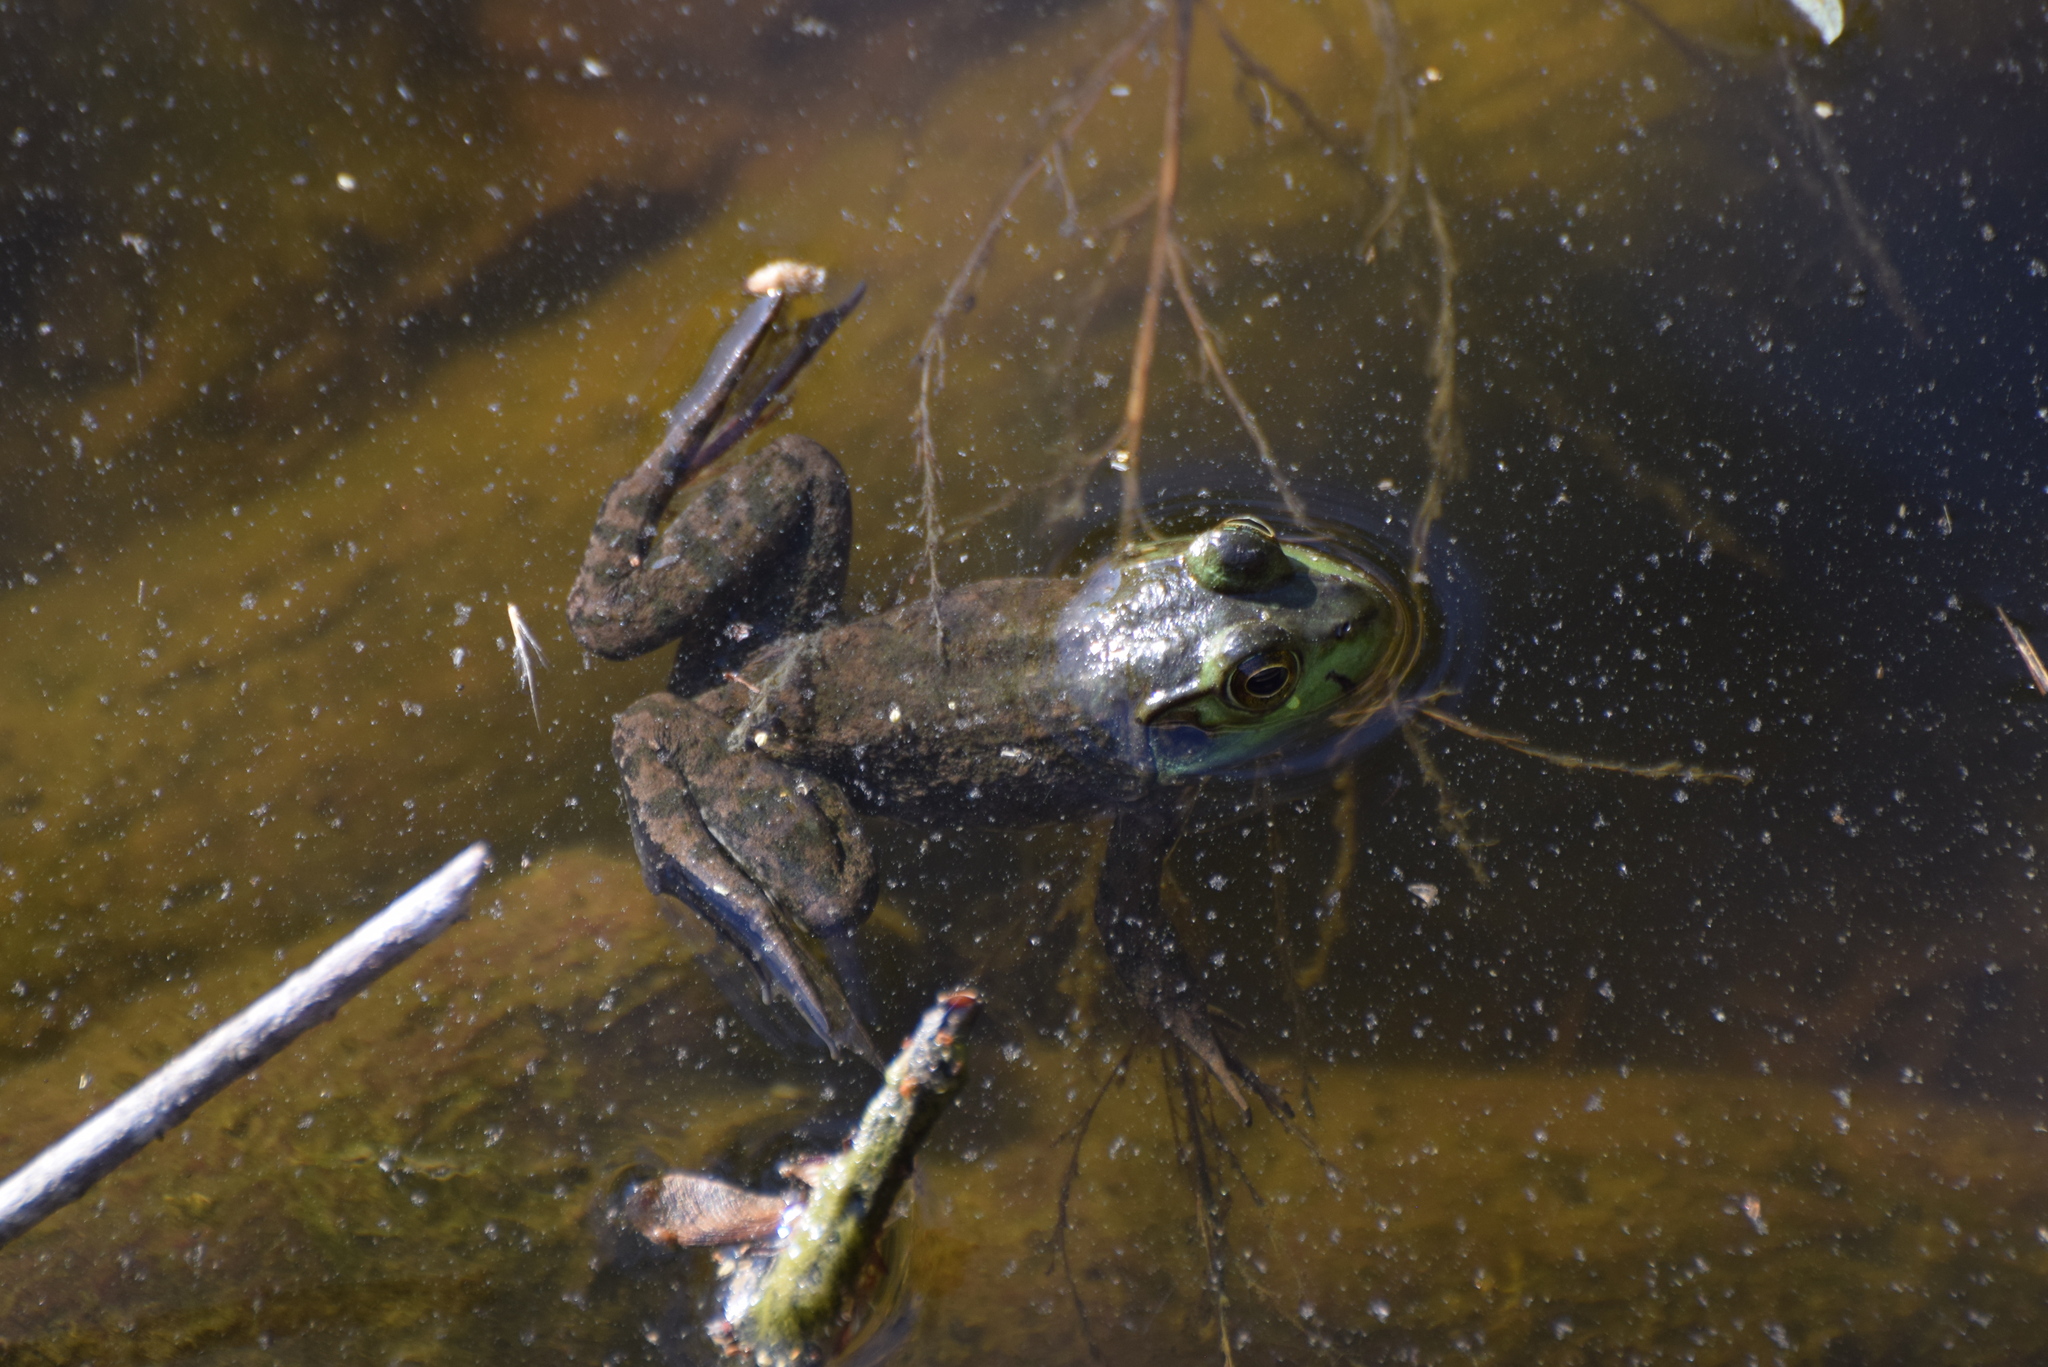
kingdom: Animalia
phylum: Chordata
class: Amphibia
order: Anura
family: Ranidae
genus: Lithobates
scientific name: Lithobates catesbeianus
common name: American bullfrog
